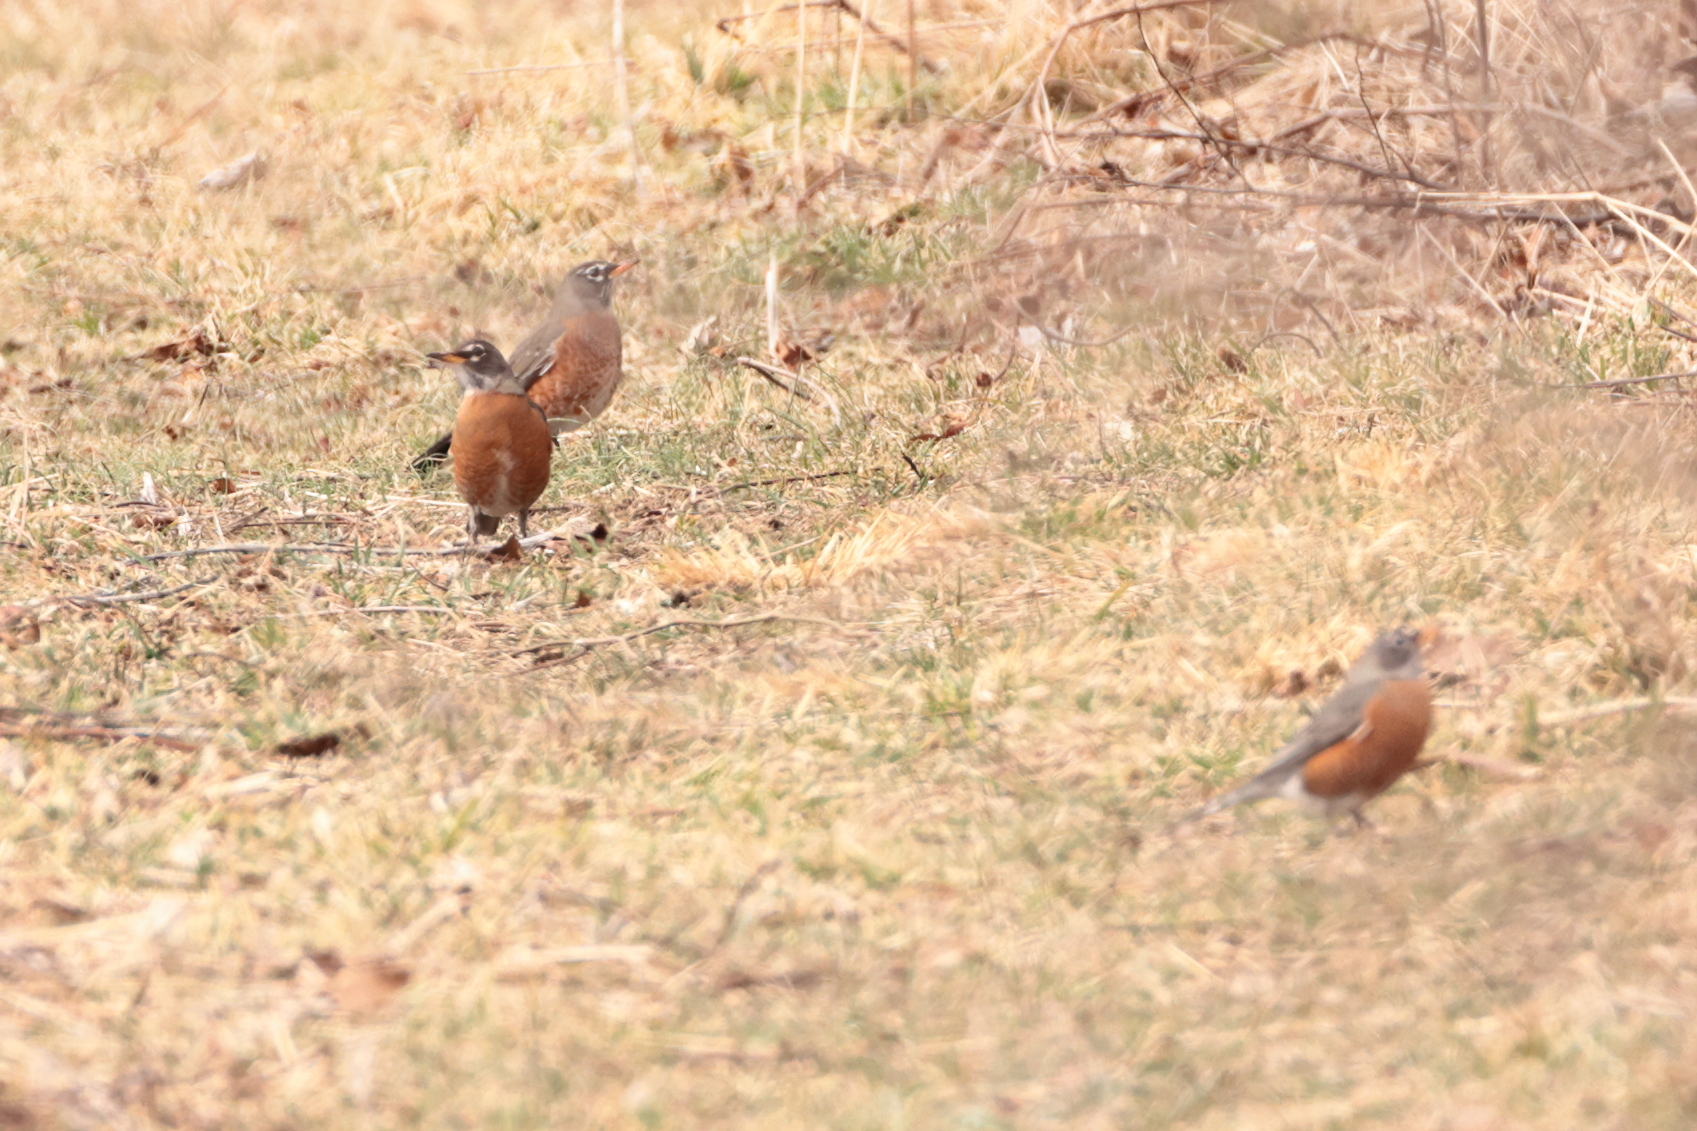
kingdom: Animalia
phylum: Chordata
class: Aves
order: Passeriformes
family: Turdidae
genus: Turdus
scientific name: Turdus migratorius
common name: American robin
